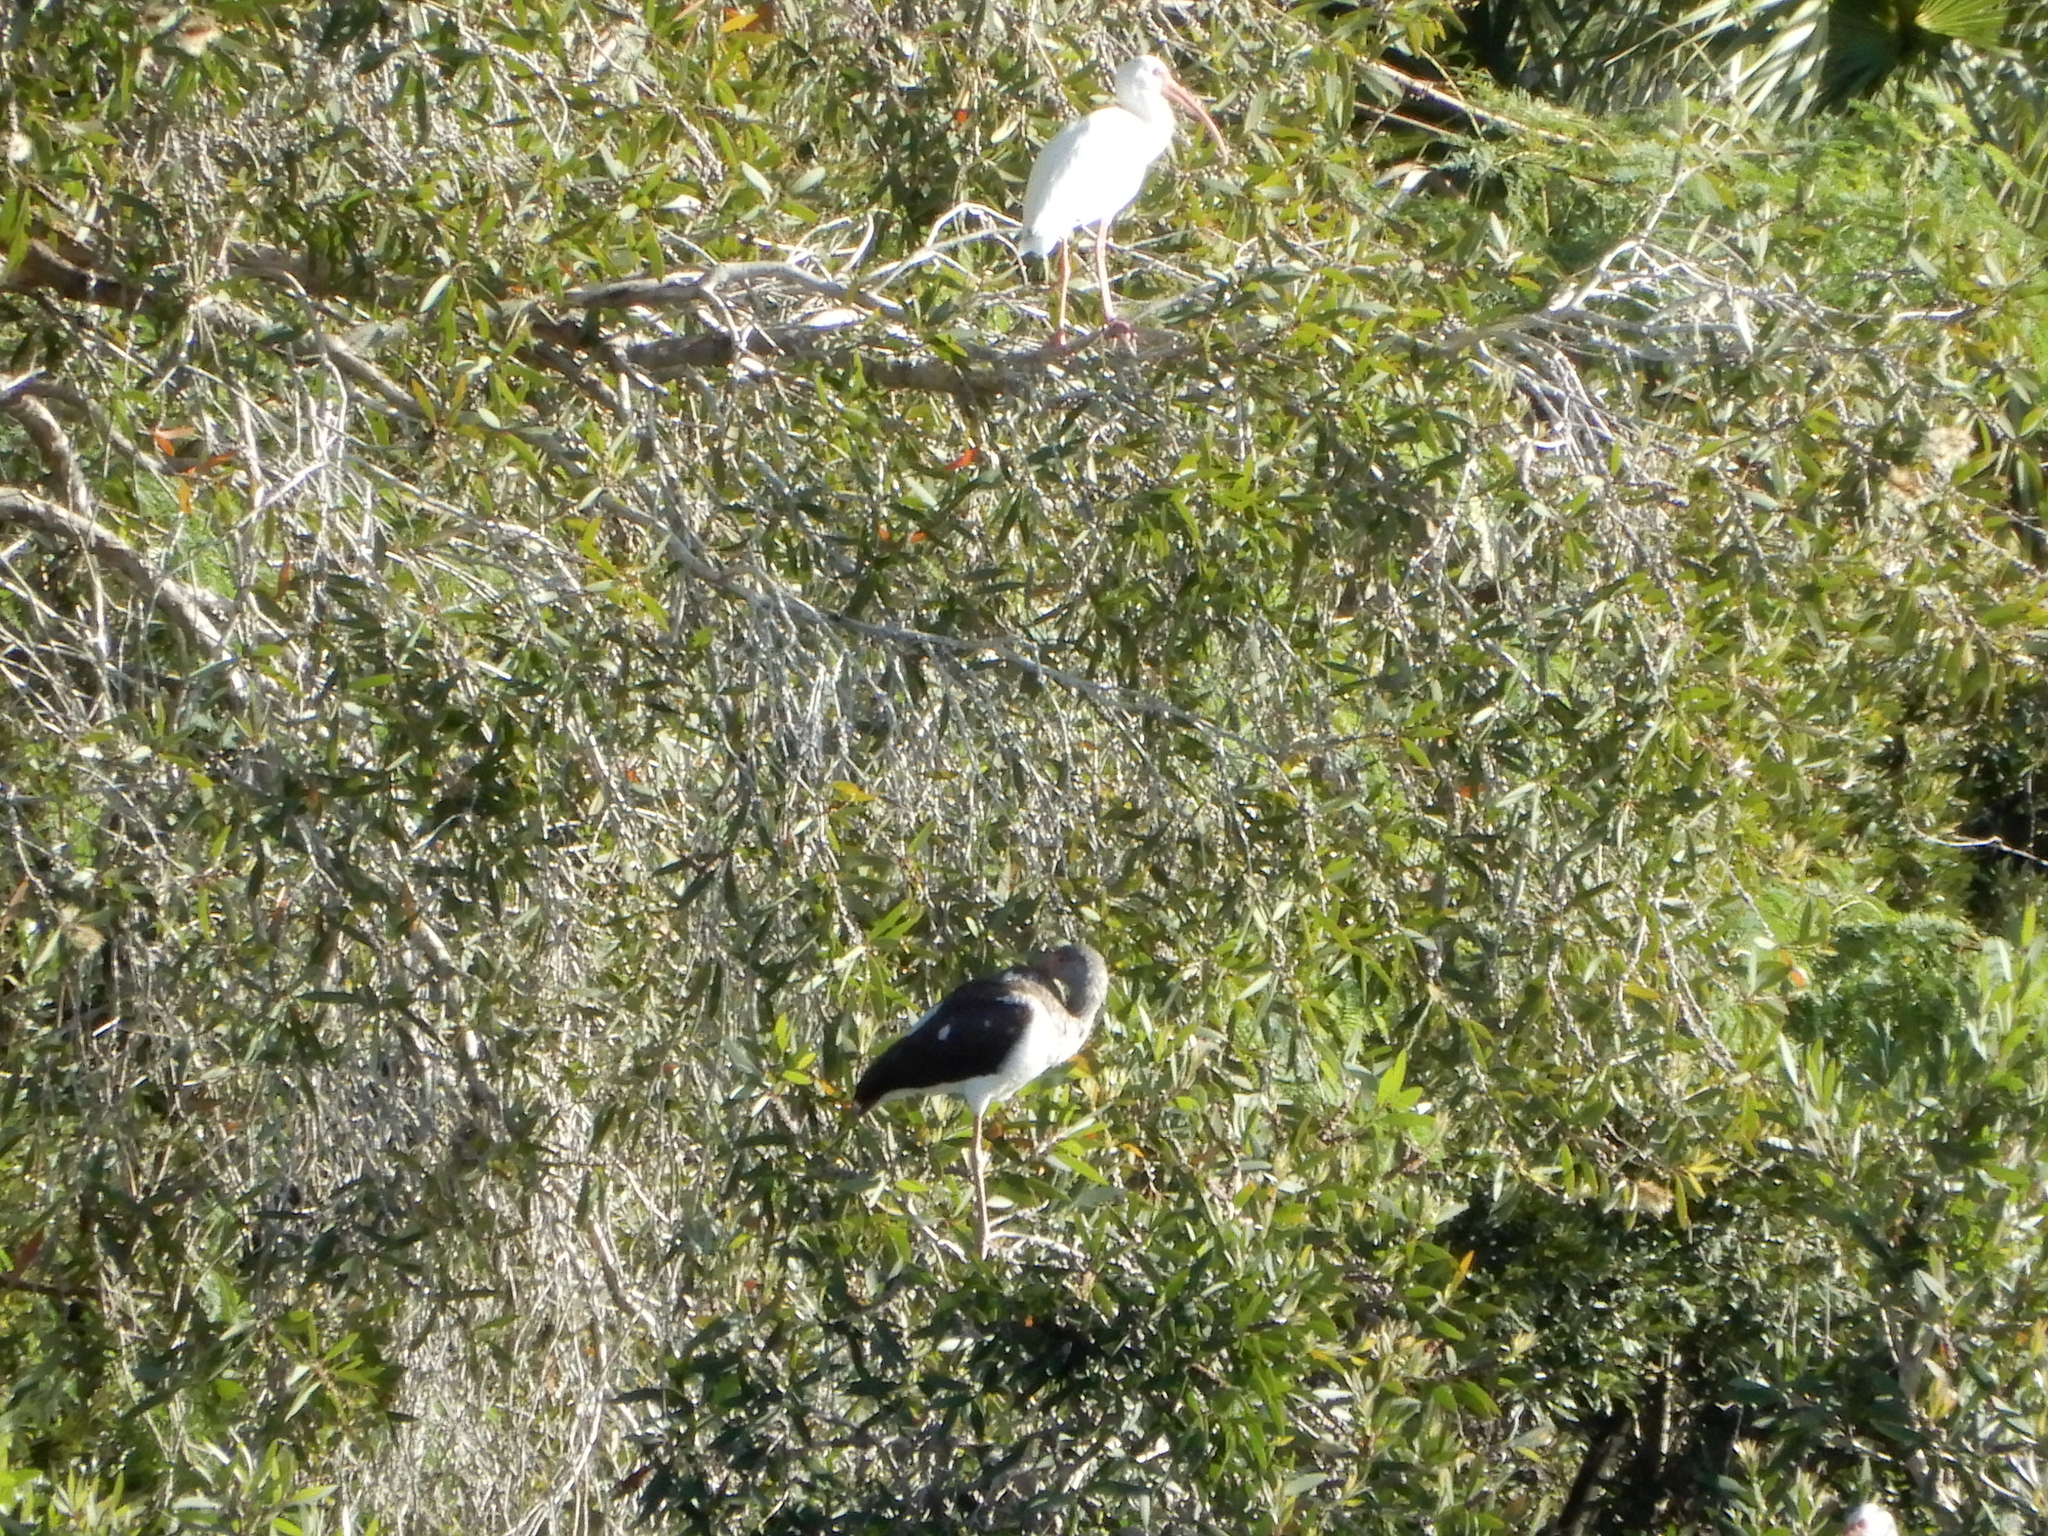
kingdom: Animalia
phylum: Chordata
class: Aves
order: Pelecaniformes
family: Threskiornithidae
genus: Eudocimus
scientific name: Eudocimus albus
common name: White ibis
